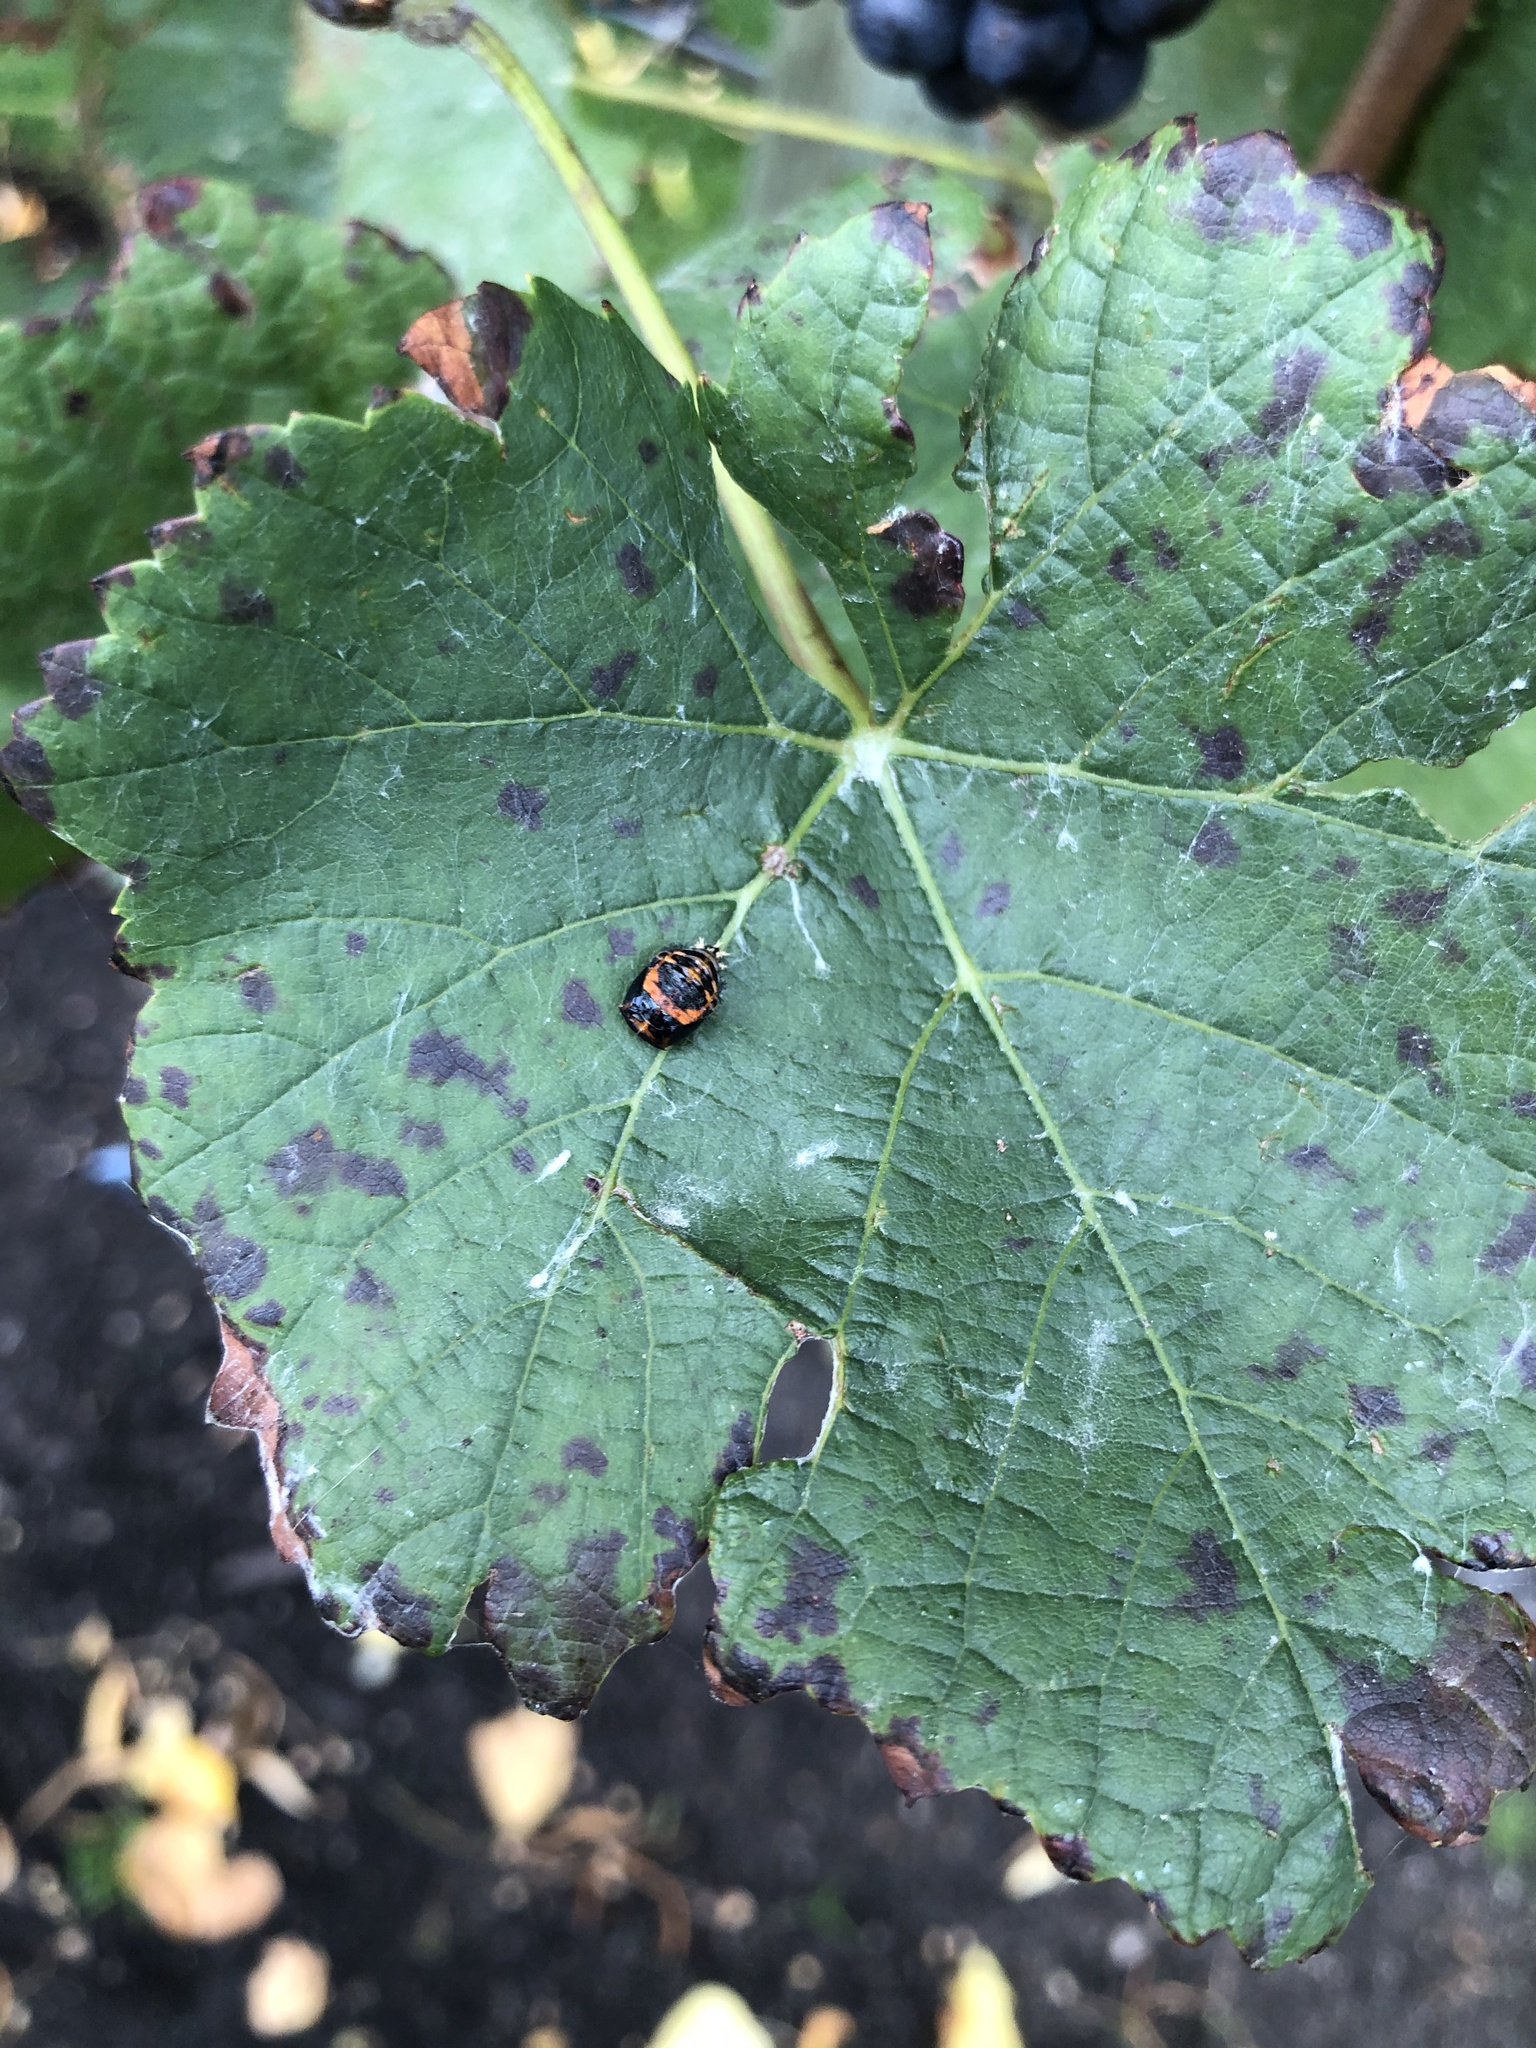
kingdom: Animalia
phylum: Arthropoda
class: Insecta
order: Coleoptera
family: Coccinellidae
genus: Harmonia
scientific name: Harmonia axyridis
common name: Harlequin ladybird
